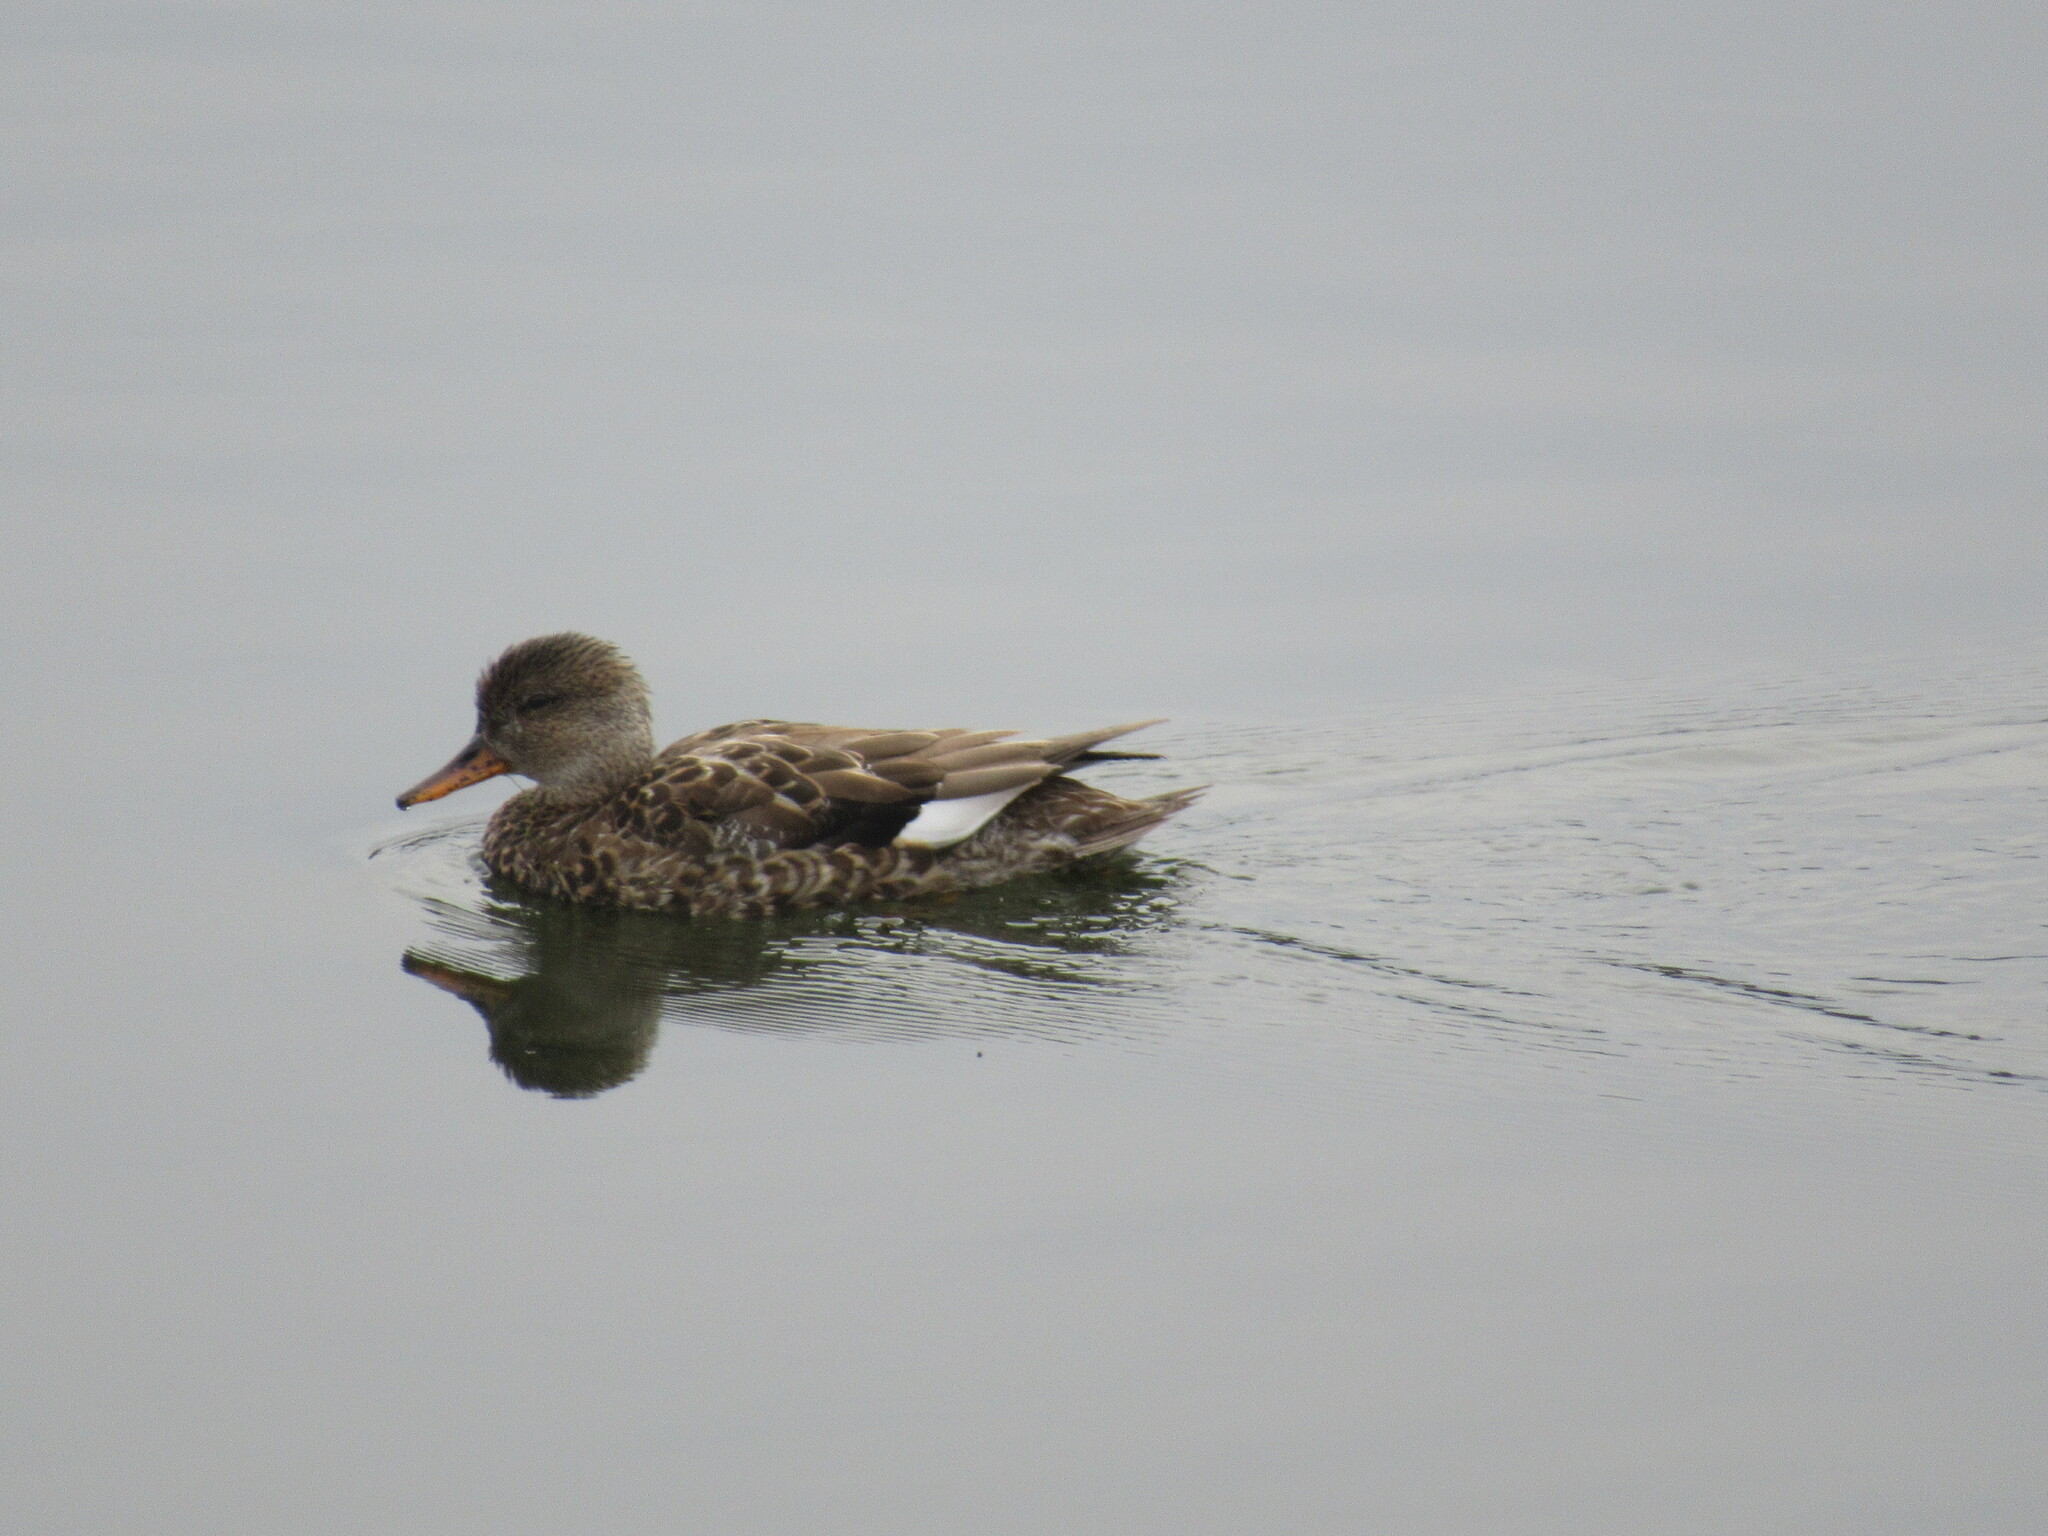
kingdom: Animalia
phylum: Chordata
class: Aves
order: Anseriformes
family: Anatidae
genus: Mareca
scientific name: Mareca strepera
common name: Gadwall
